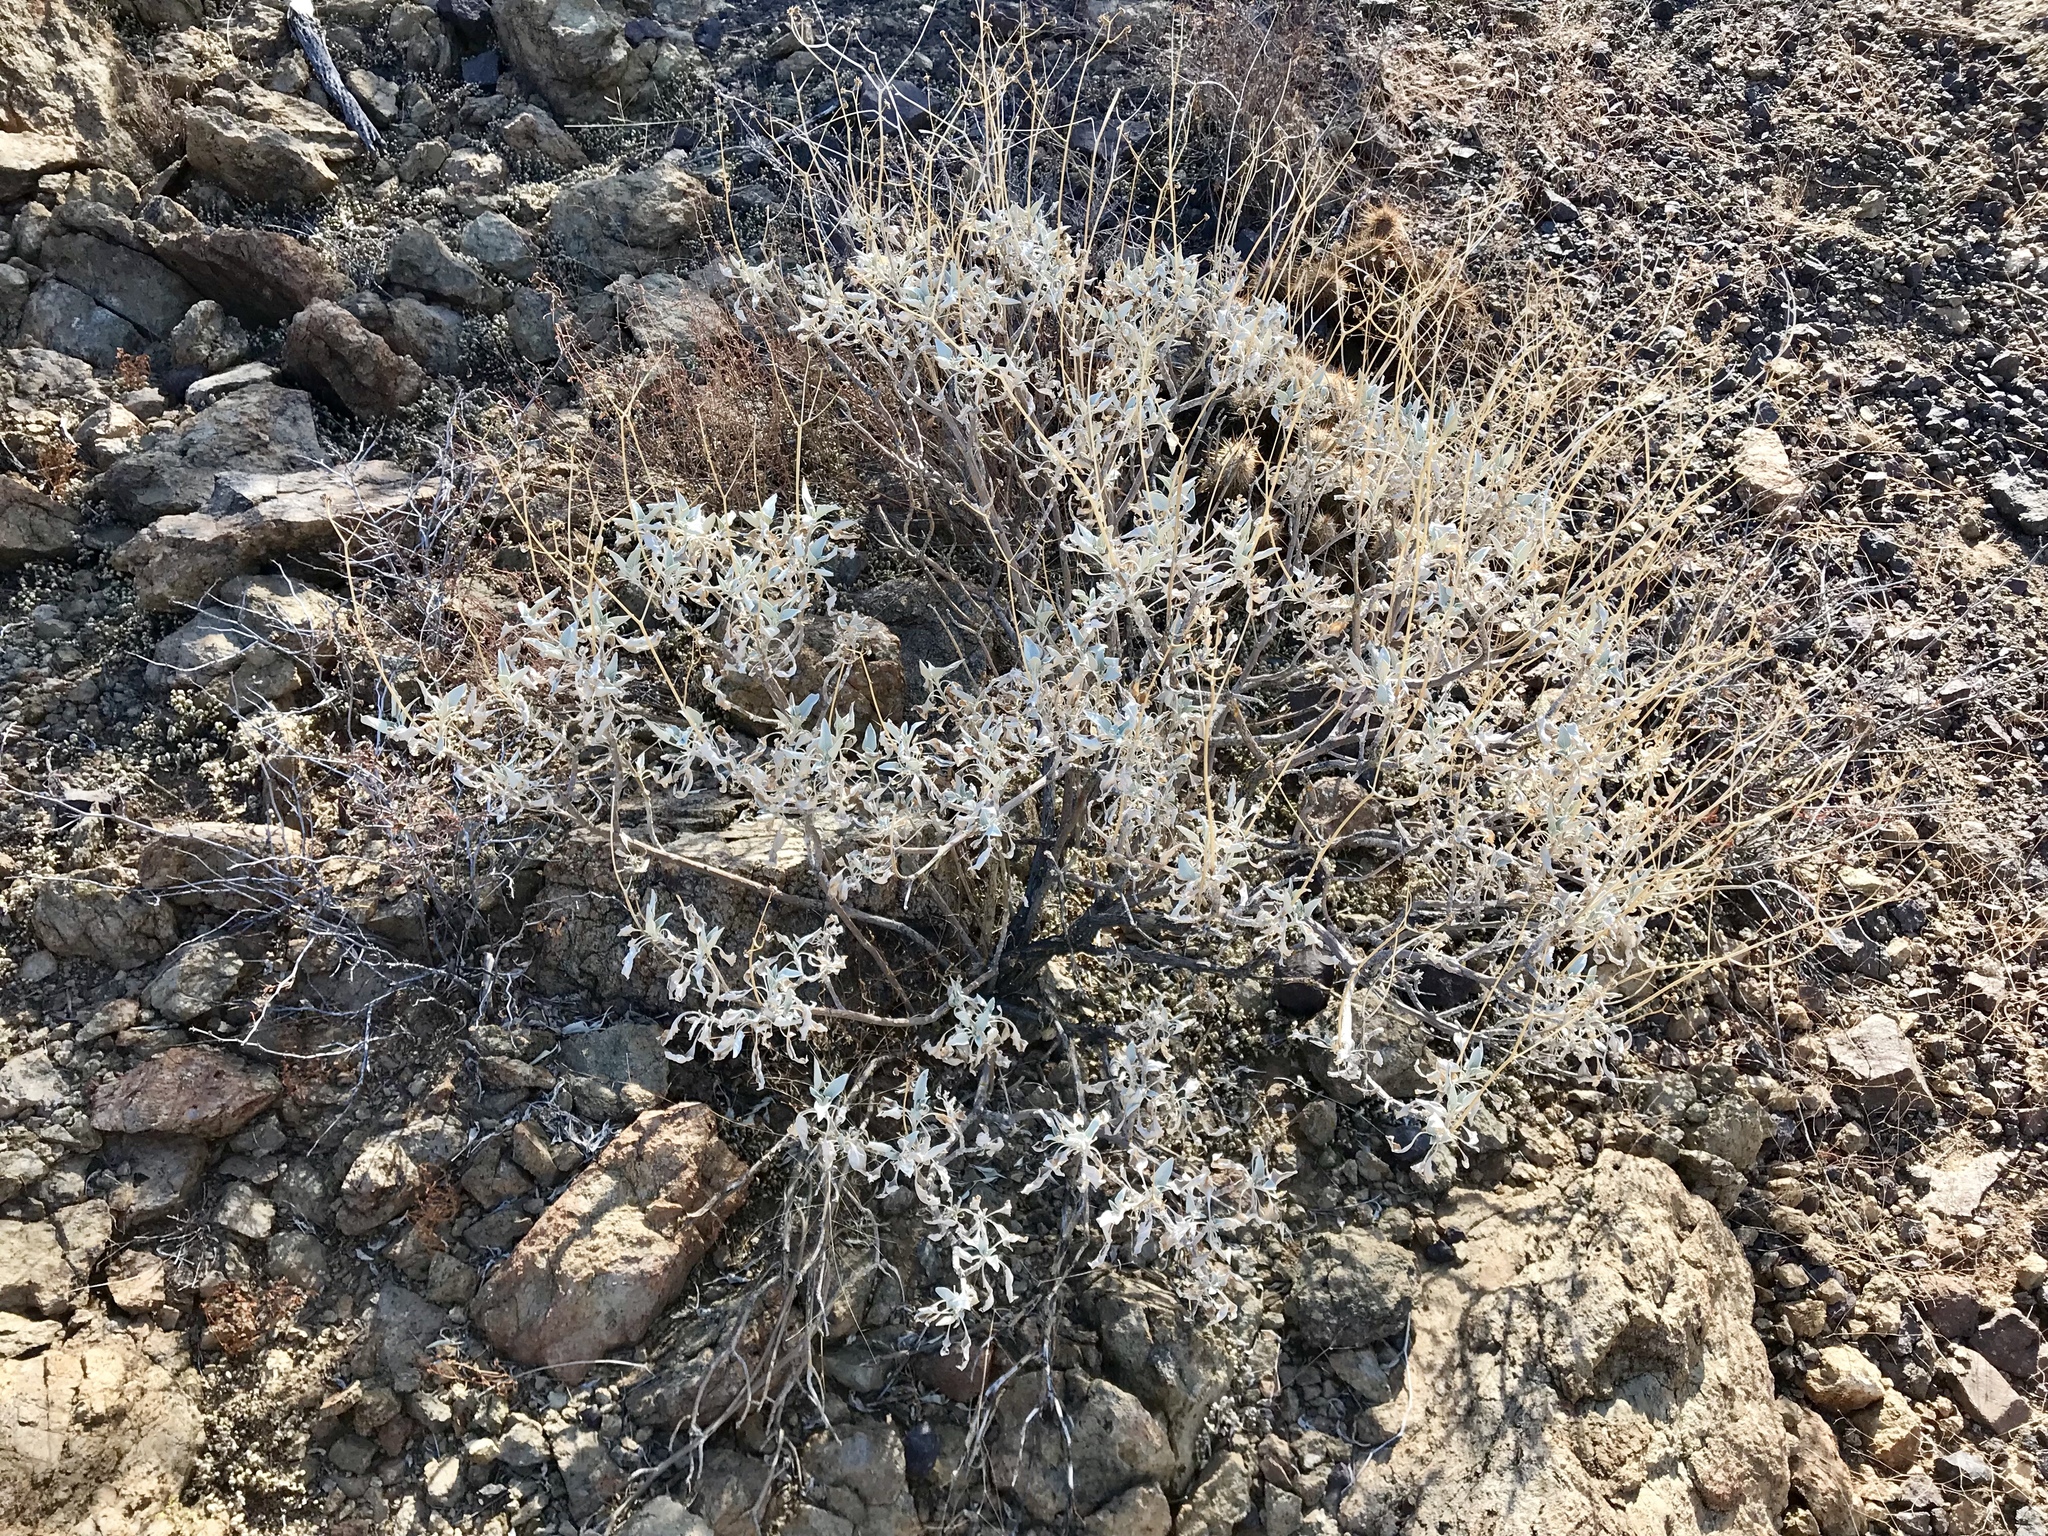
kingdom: Plantae
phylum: Tracheophyta
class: Magnoliopsida
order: Asterales
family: Asteraceae
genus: Encelia
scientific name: Encelia farinosa
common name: Brittlebush
